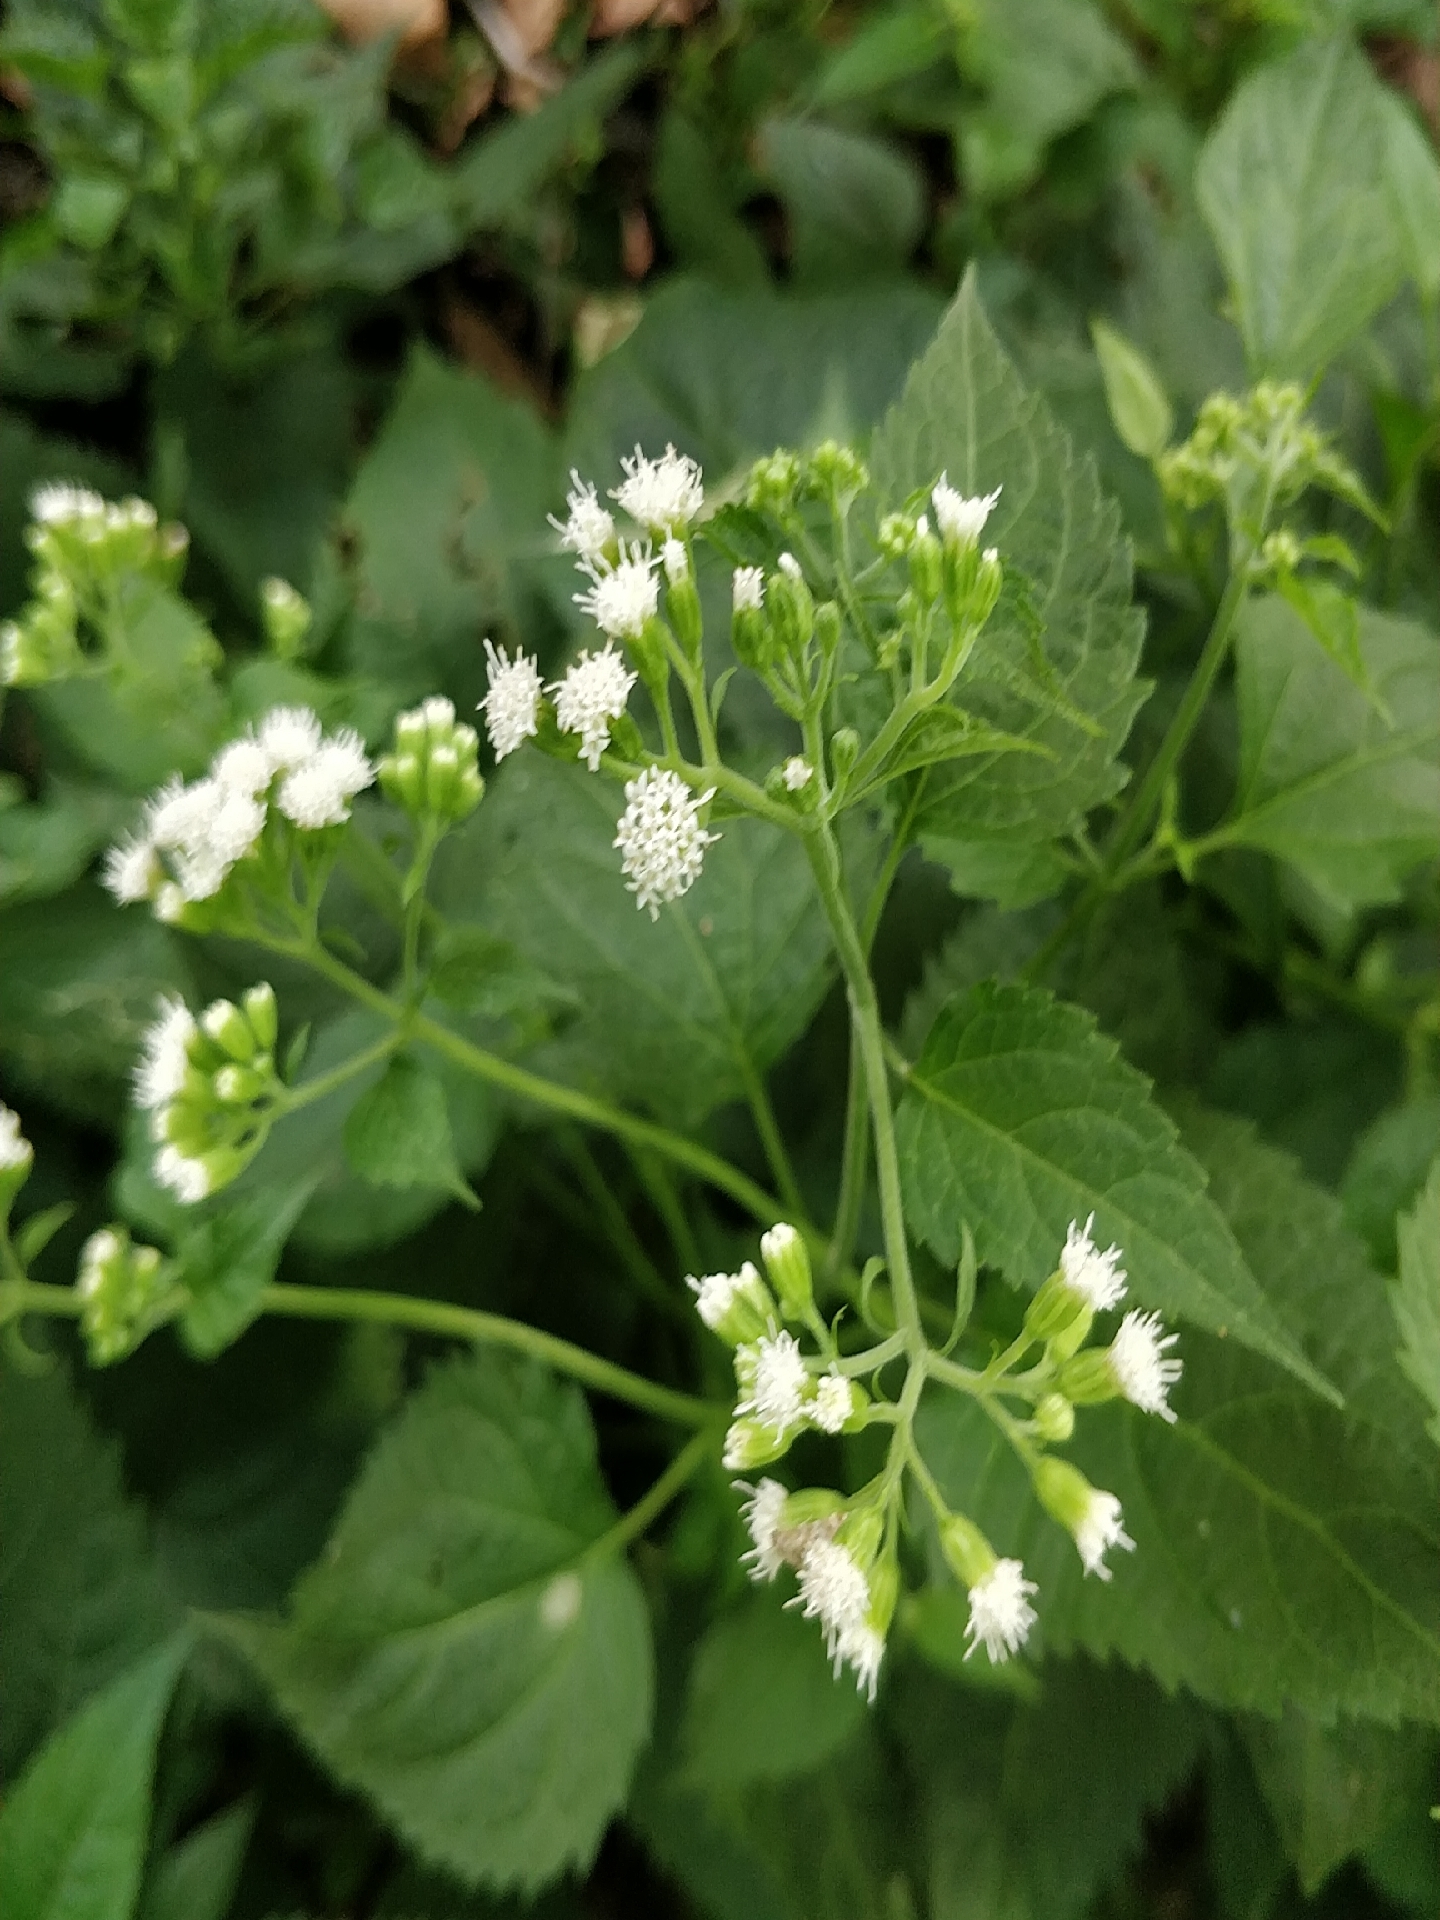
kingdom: Plantae
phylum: Tracheophyta
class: Magnoliopsida
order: Asterales
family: Asteraceae
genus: Ageratina
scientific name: Ageratina altissima
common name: White snakeroot
